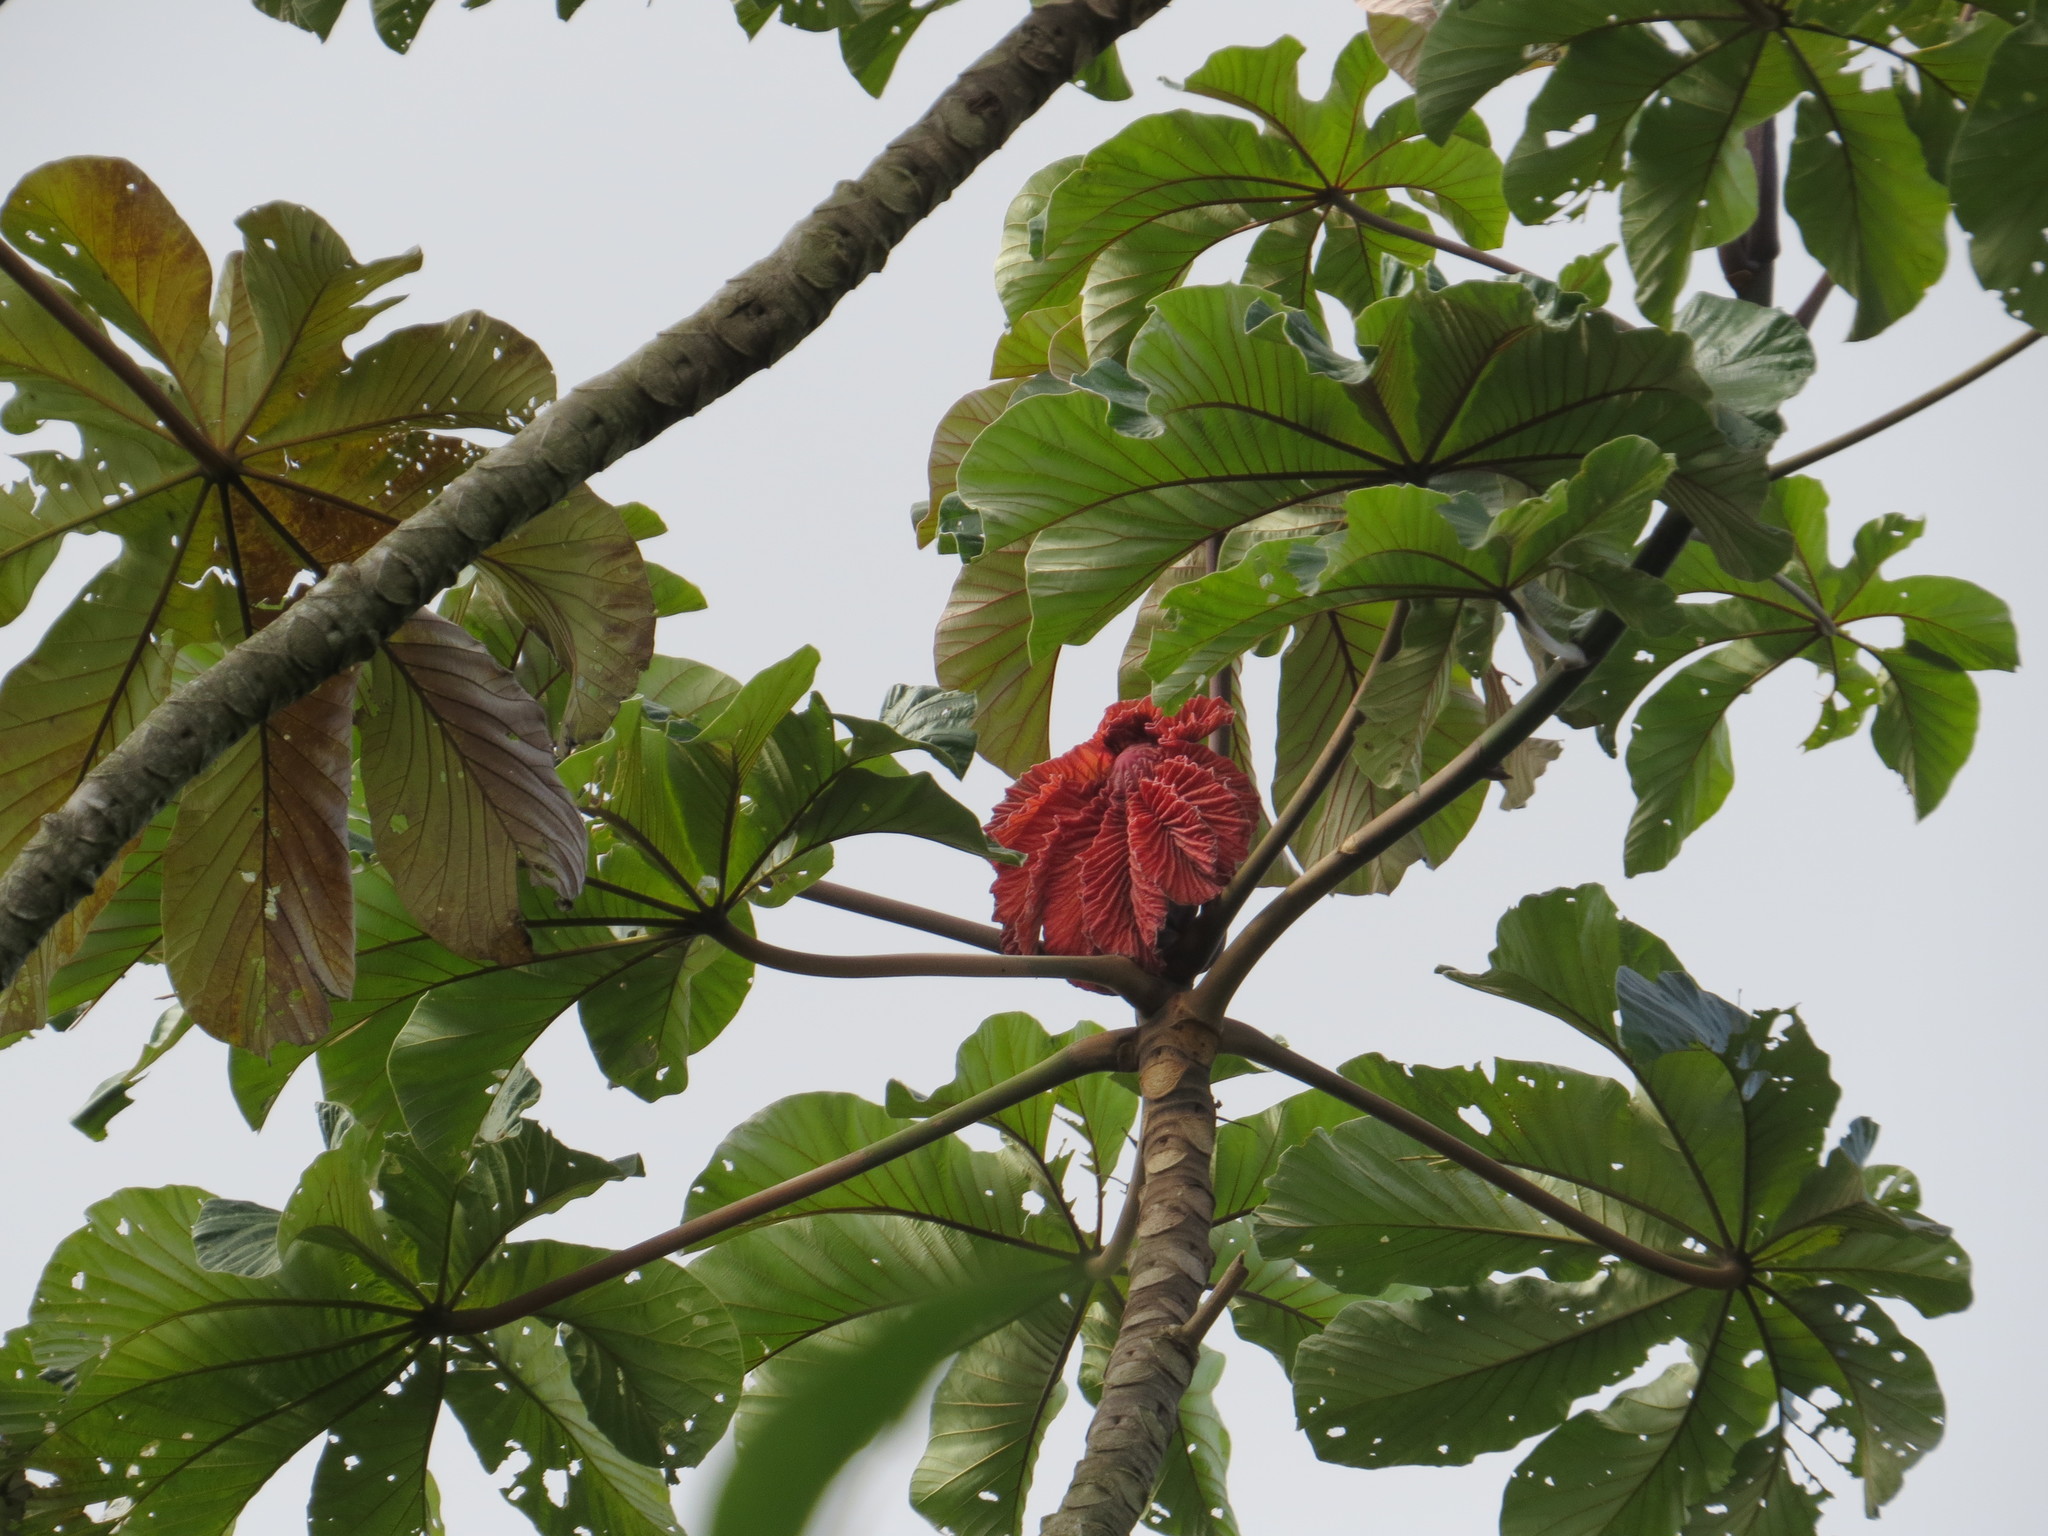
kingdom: Plantae
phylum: Tracheophyta
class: Magnoliopsida
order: Rosales
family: Urticaceae
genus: Cecropia
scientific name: Cecropia glaziovii
